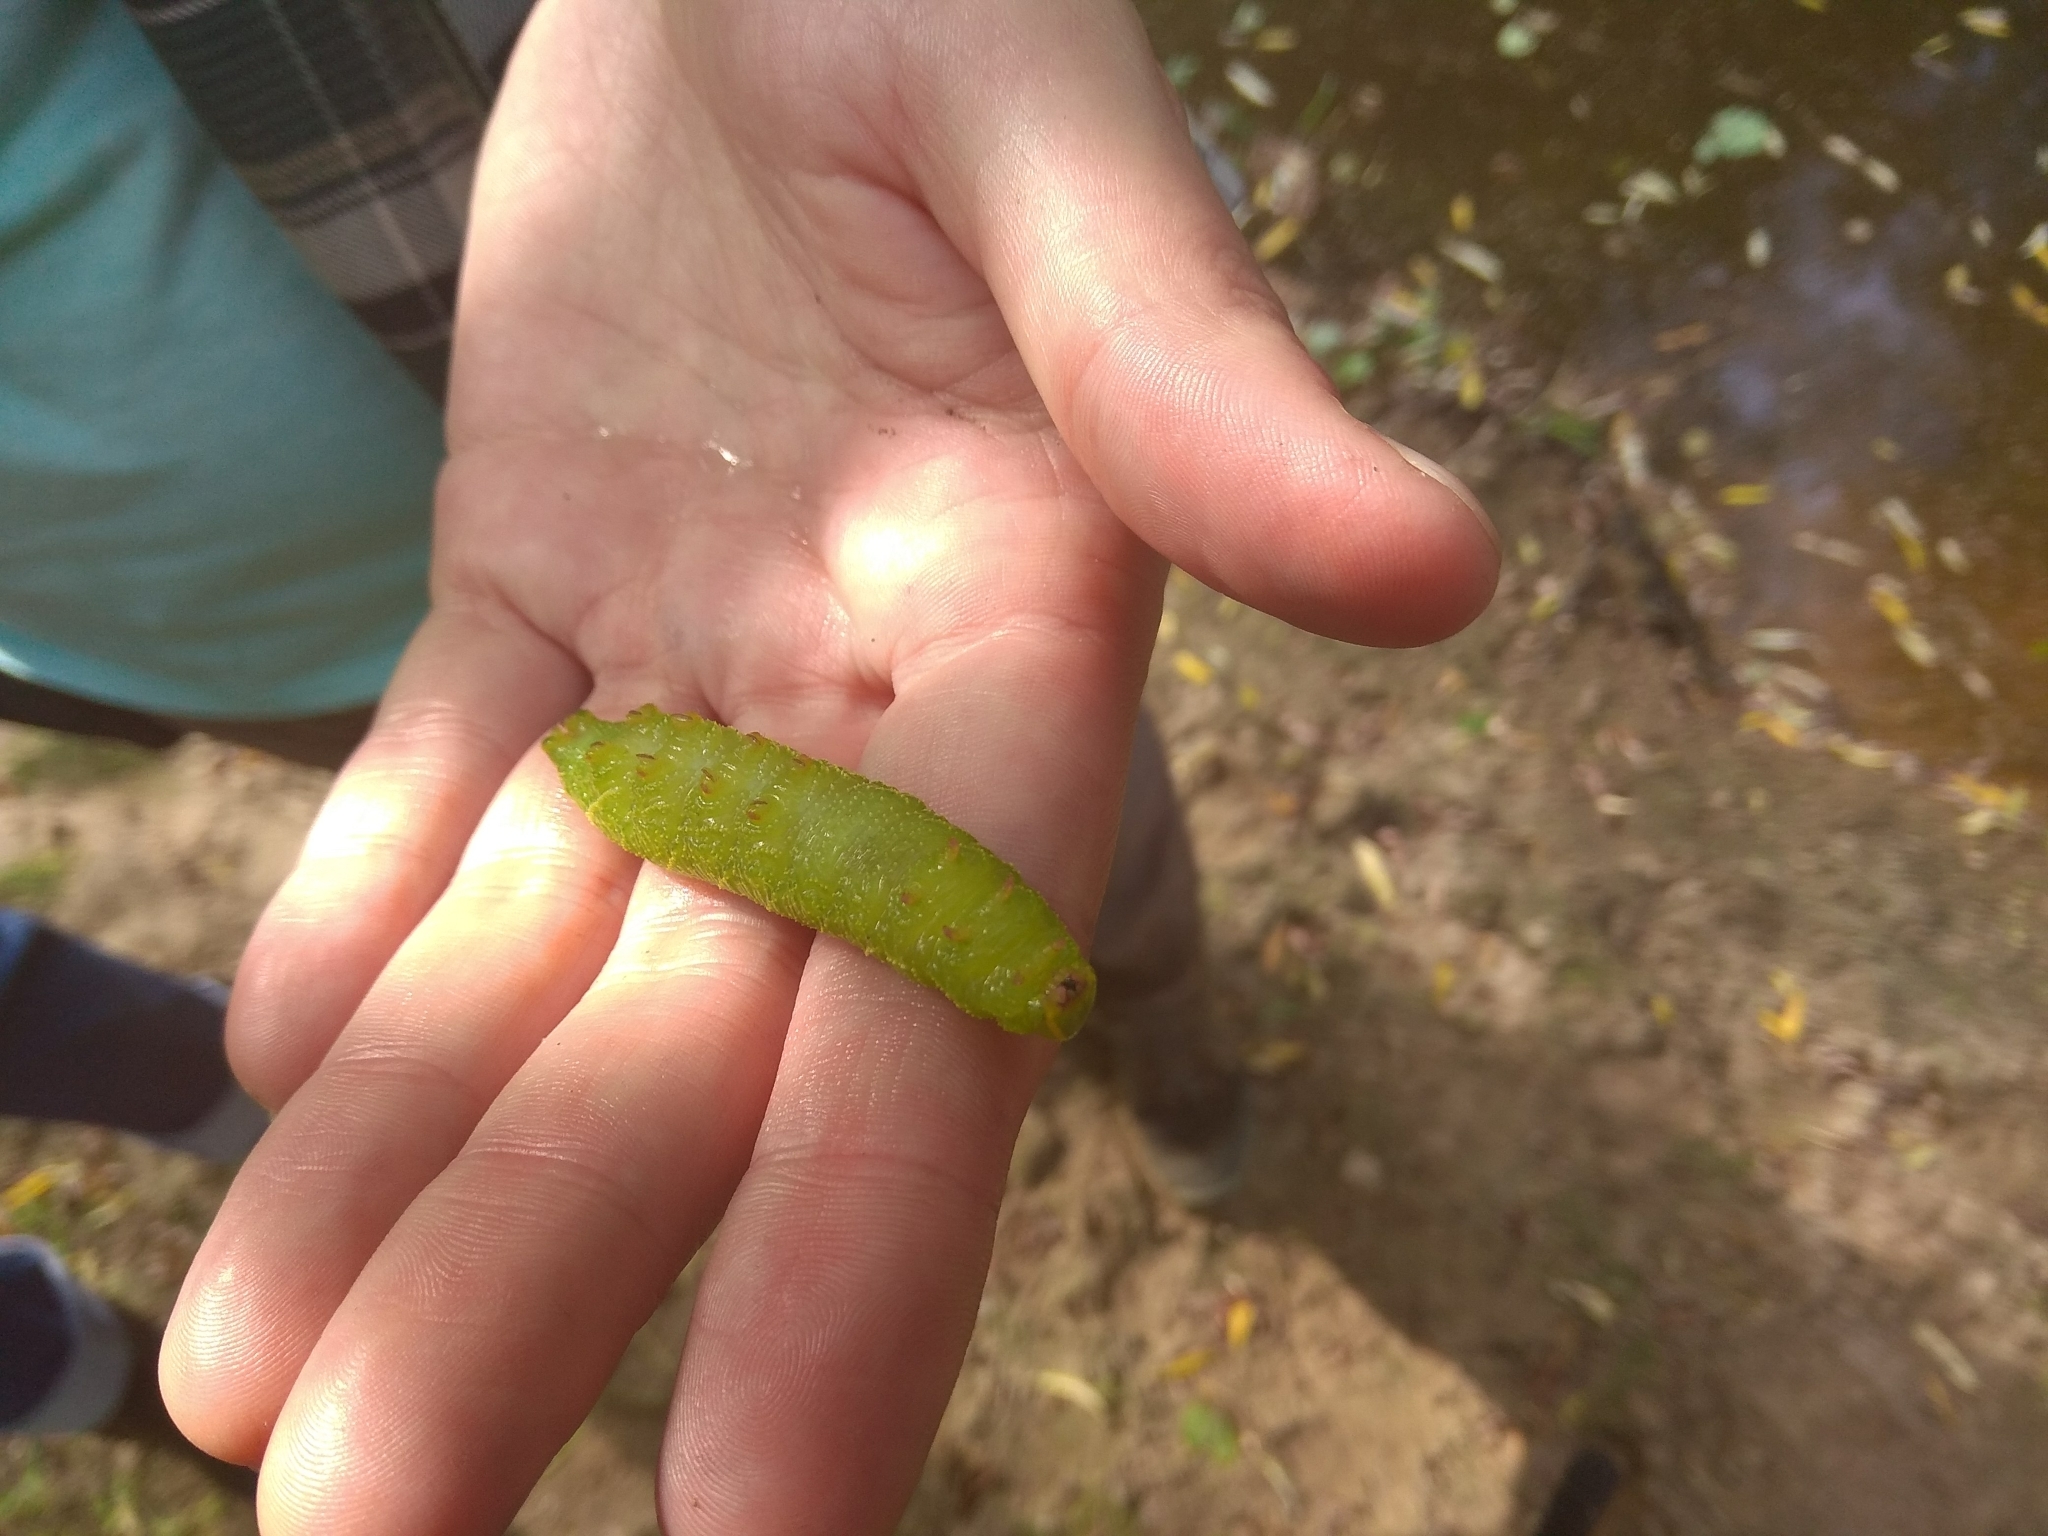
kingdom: Animalia
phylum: Arthropoda
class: Insecta
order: Lepidoptera
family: Sphingidae
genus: Laothoe
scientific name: Laothoe populi
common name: Poplar hawk-moth
